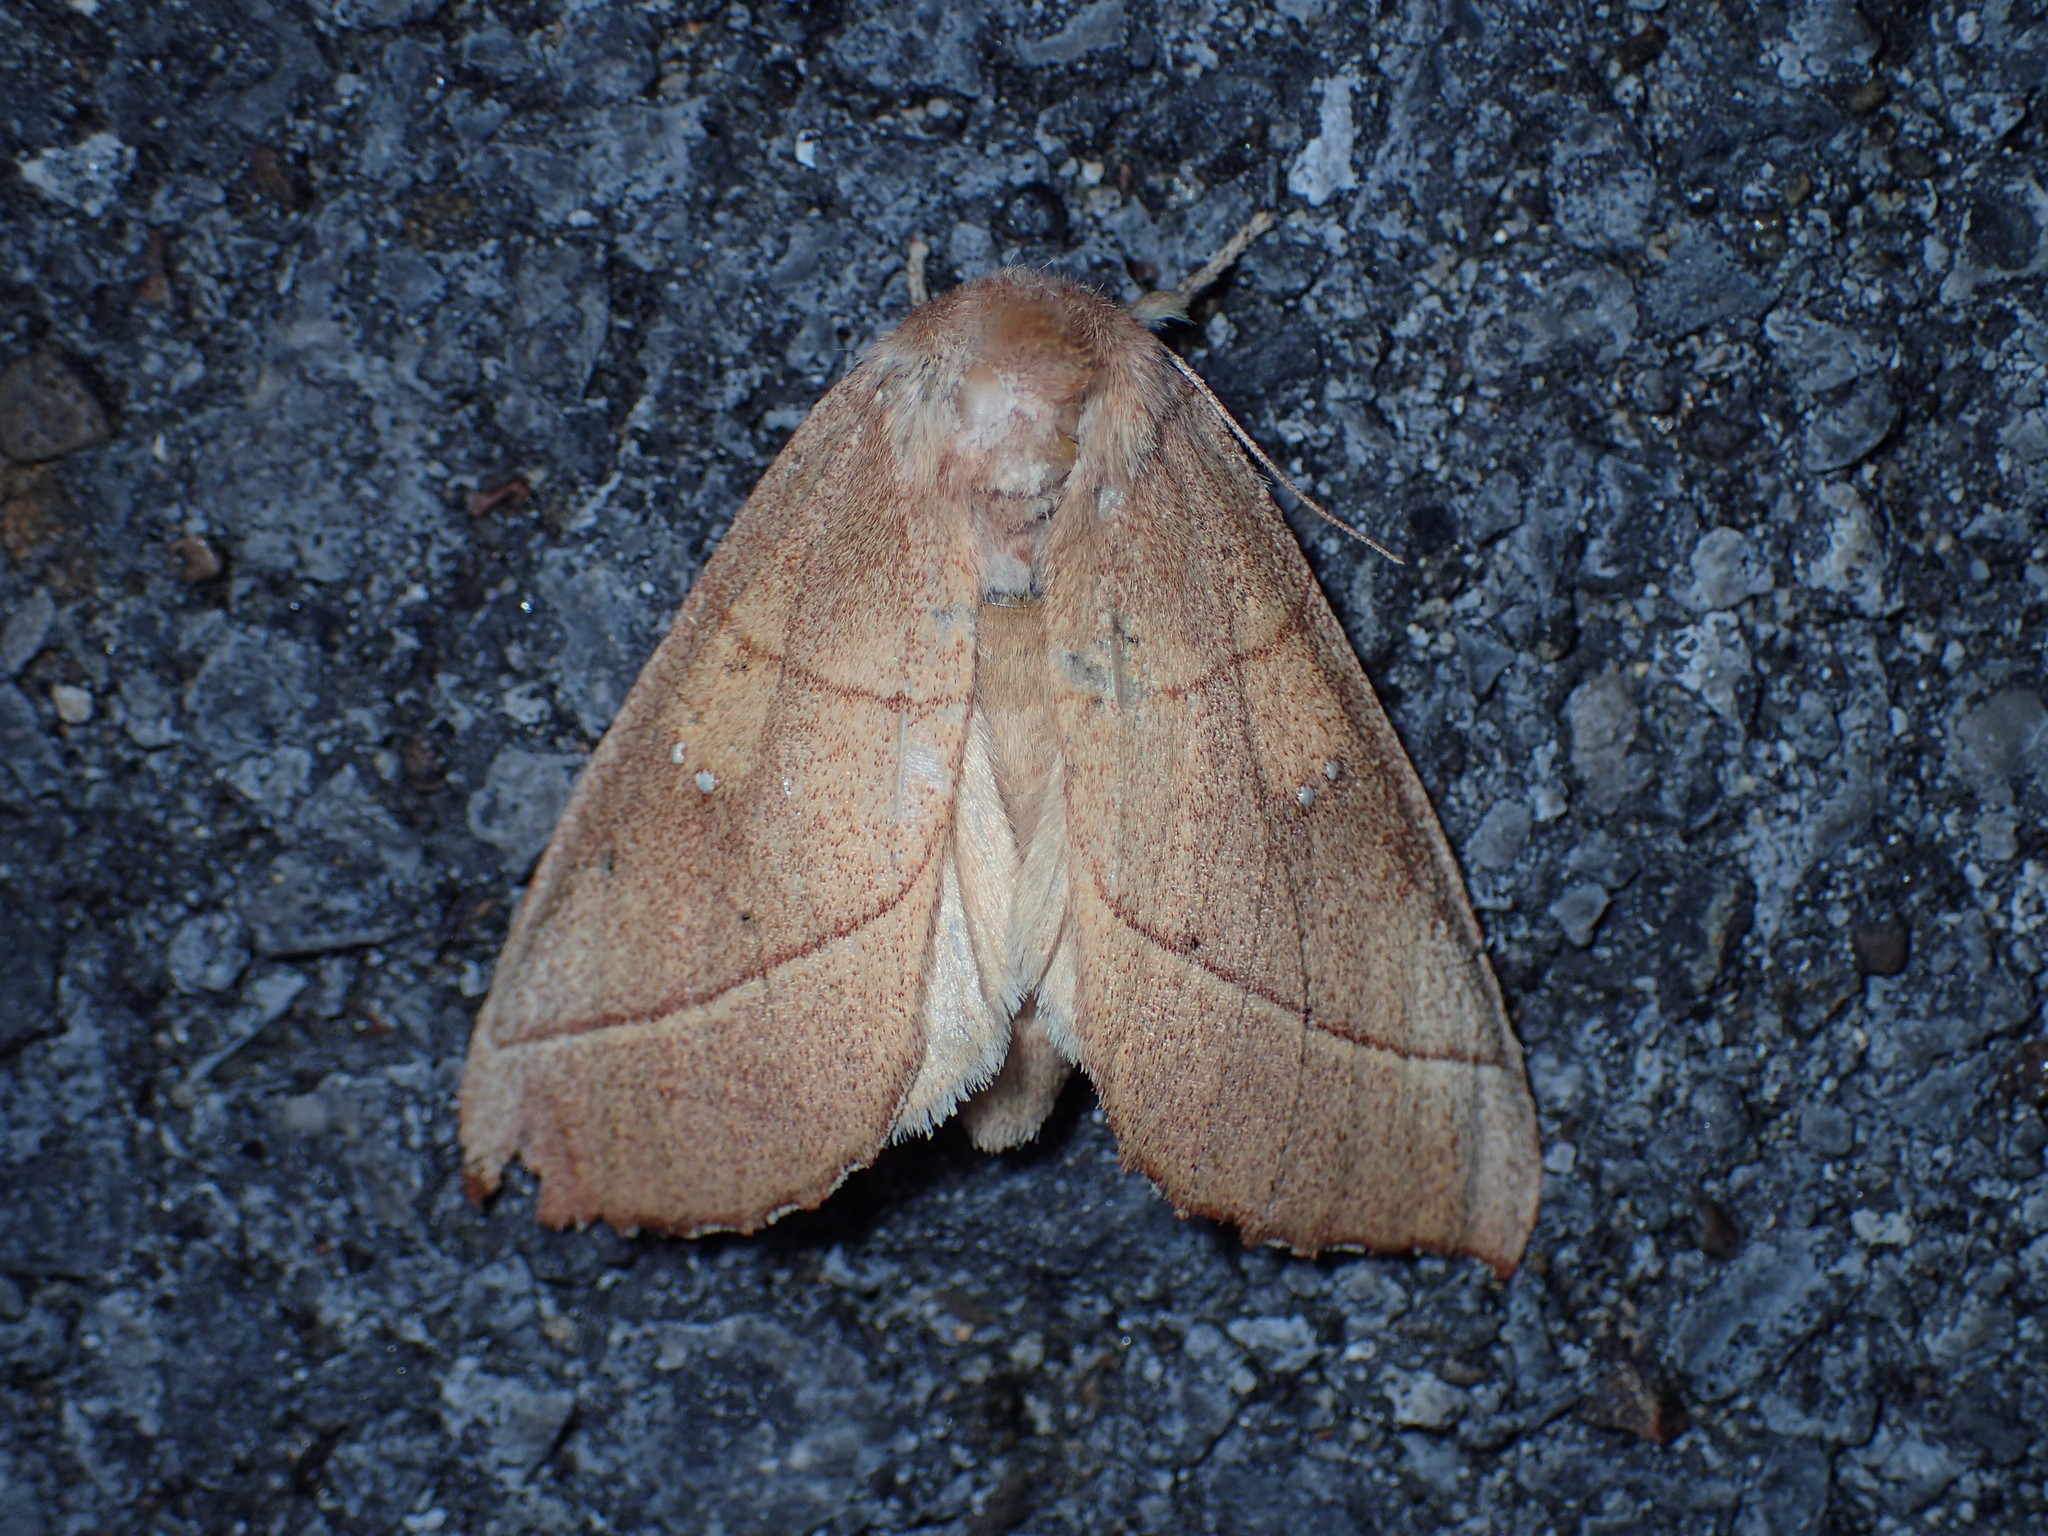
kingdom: Animalia
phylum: Arthropoda
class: Insecta
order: Lepidoptera
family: Notodontidae
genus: Nadata
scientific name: Nadata gibbosa
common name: White-dotted prominent
